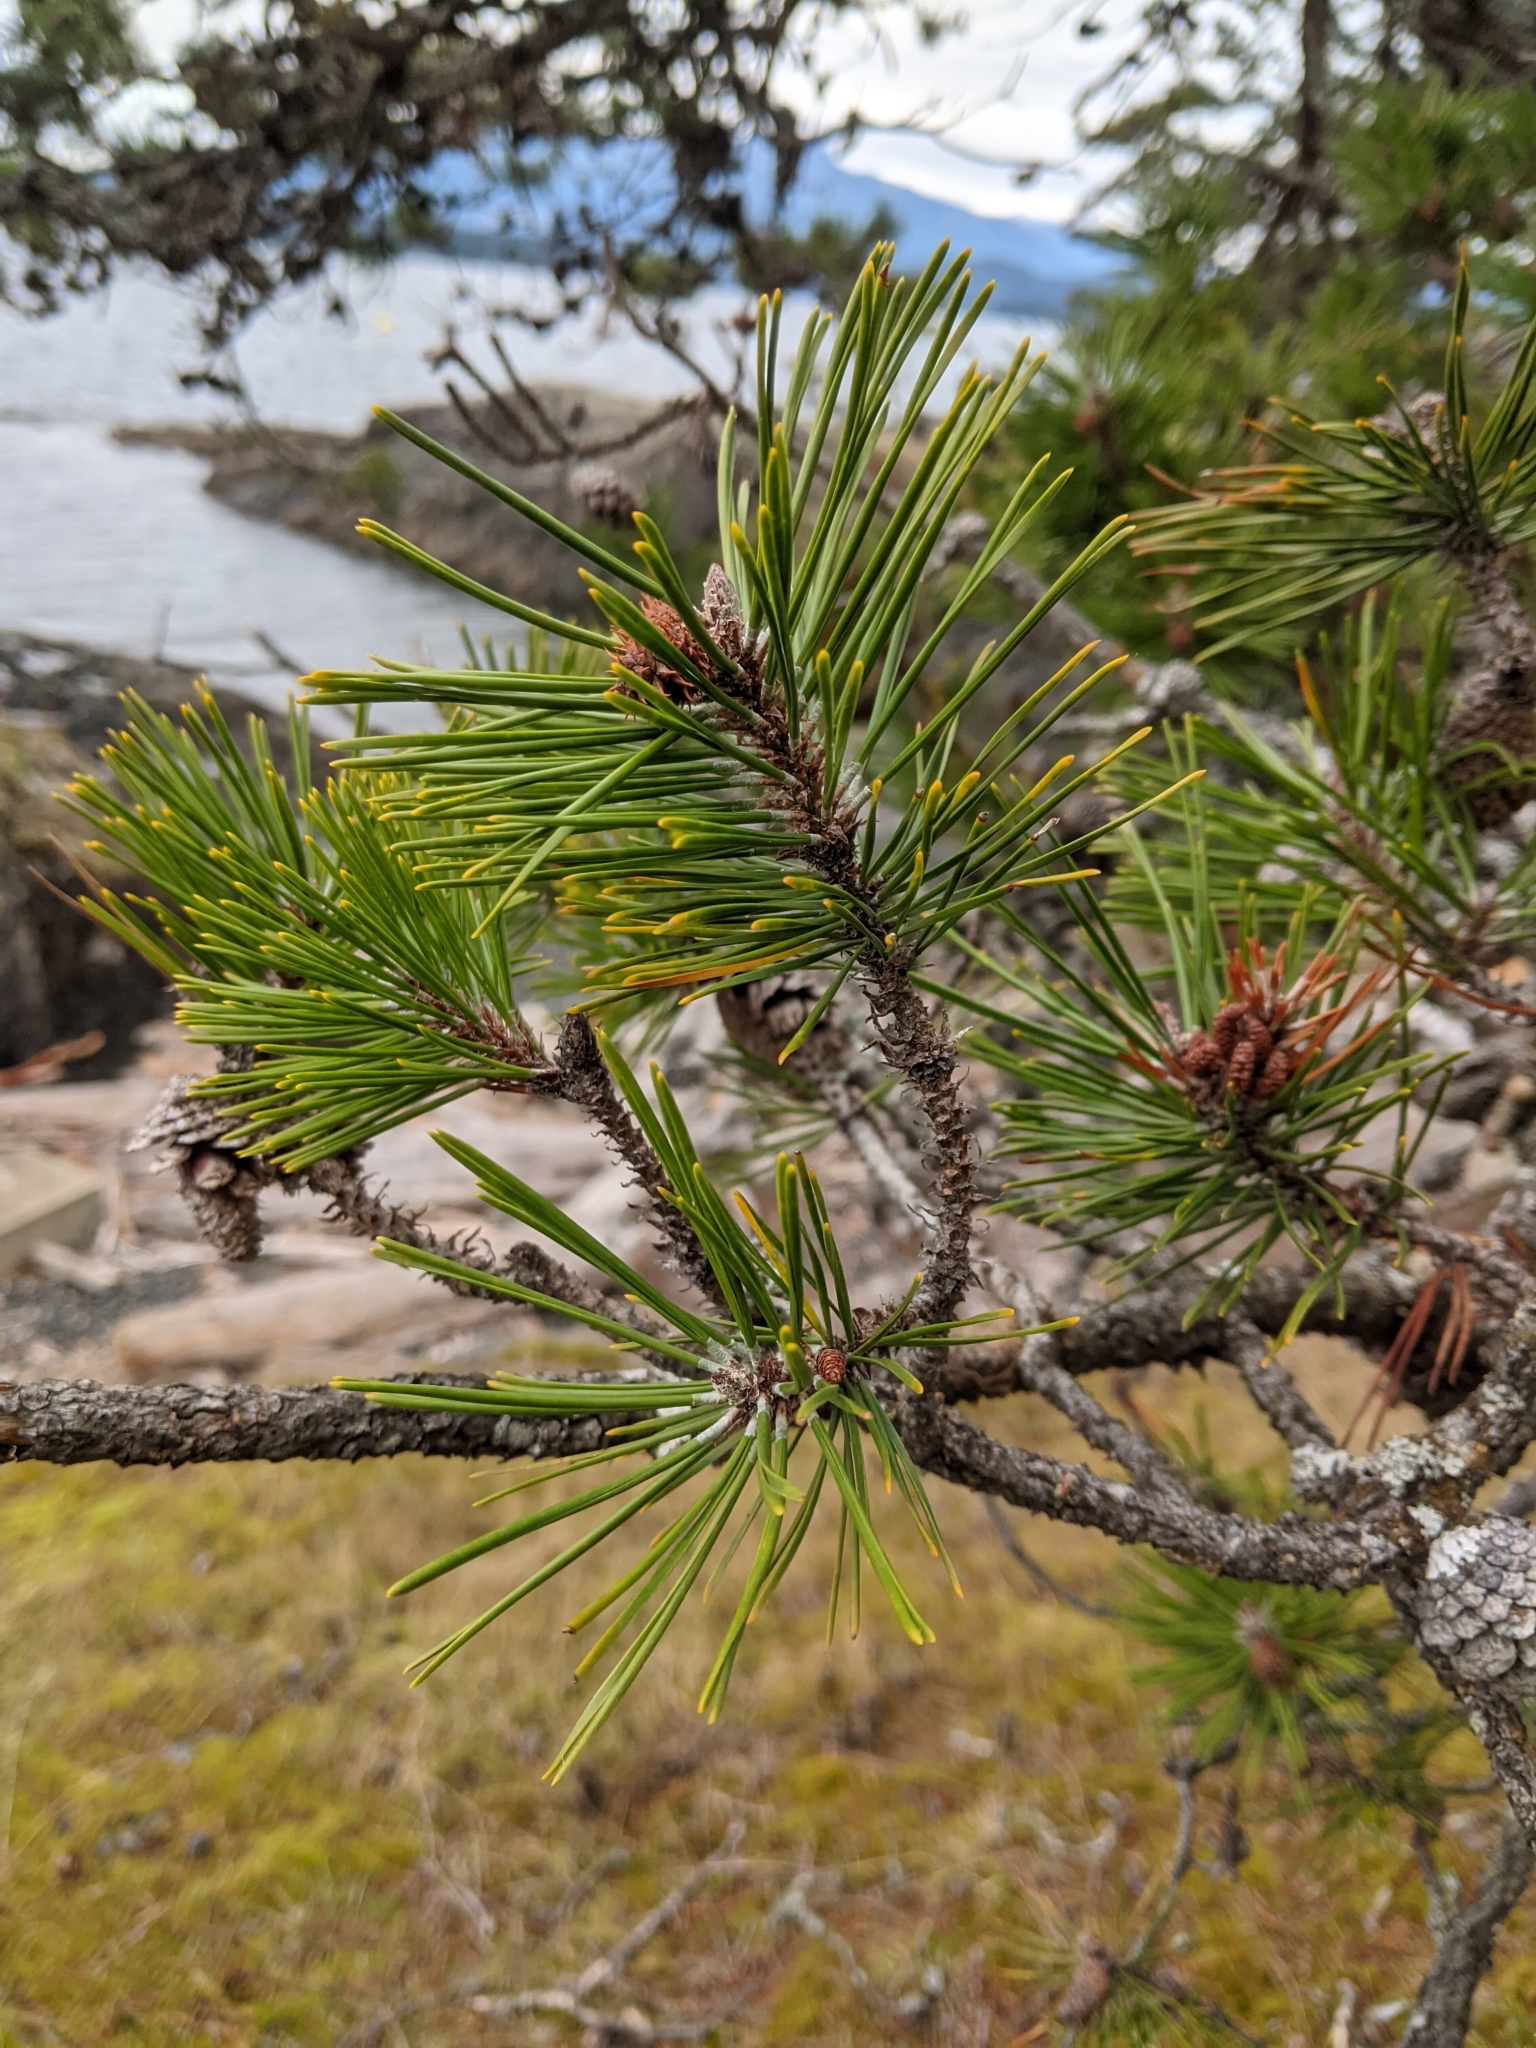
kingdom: Plantae
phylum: Tracheophyta
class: Pinopsida
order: Pinales
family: Pinaceae
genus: Pinus
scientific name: Pinus contorta
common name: Lodgepole pine
